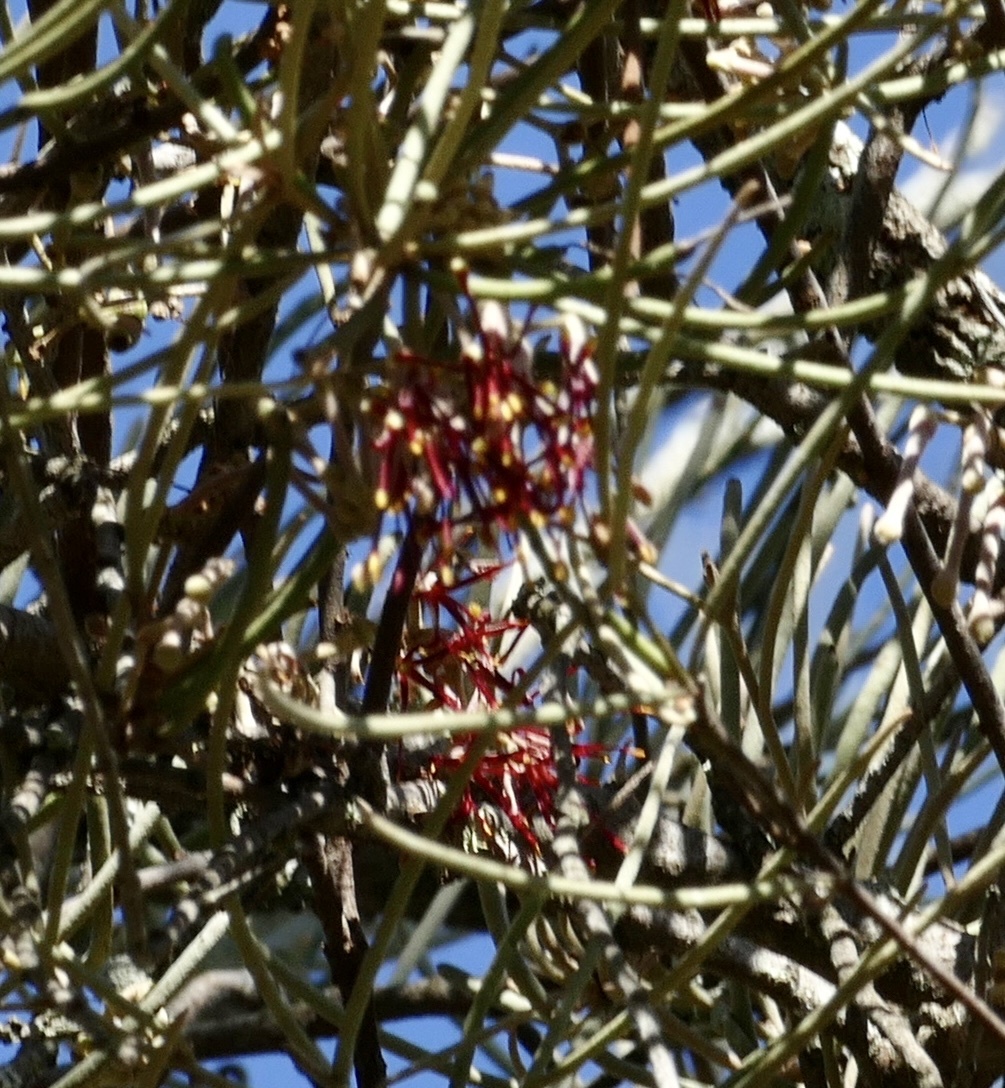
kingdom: Plantae
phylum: Tracheophyta
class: Magnoliopsida
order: Santalales
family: Loranthaceae
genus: Amyema
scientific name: Amyema linophylla
